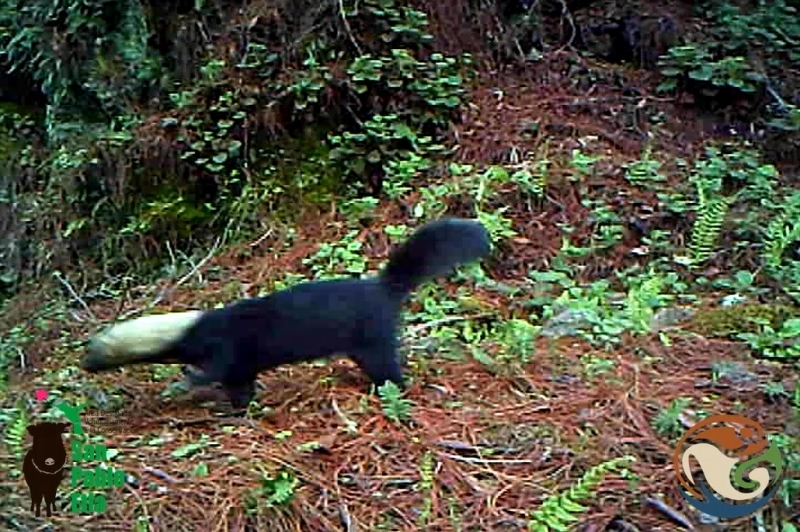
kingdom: Animalia
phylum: Chordata
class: Mammalia
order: Carnivora
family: Mustelidae
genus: Eira
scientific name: Eira barbara
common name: Tayra
